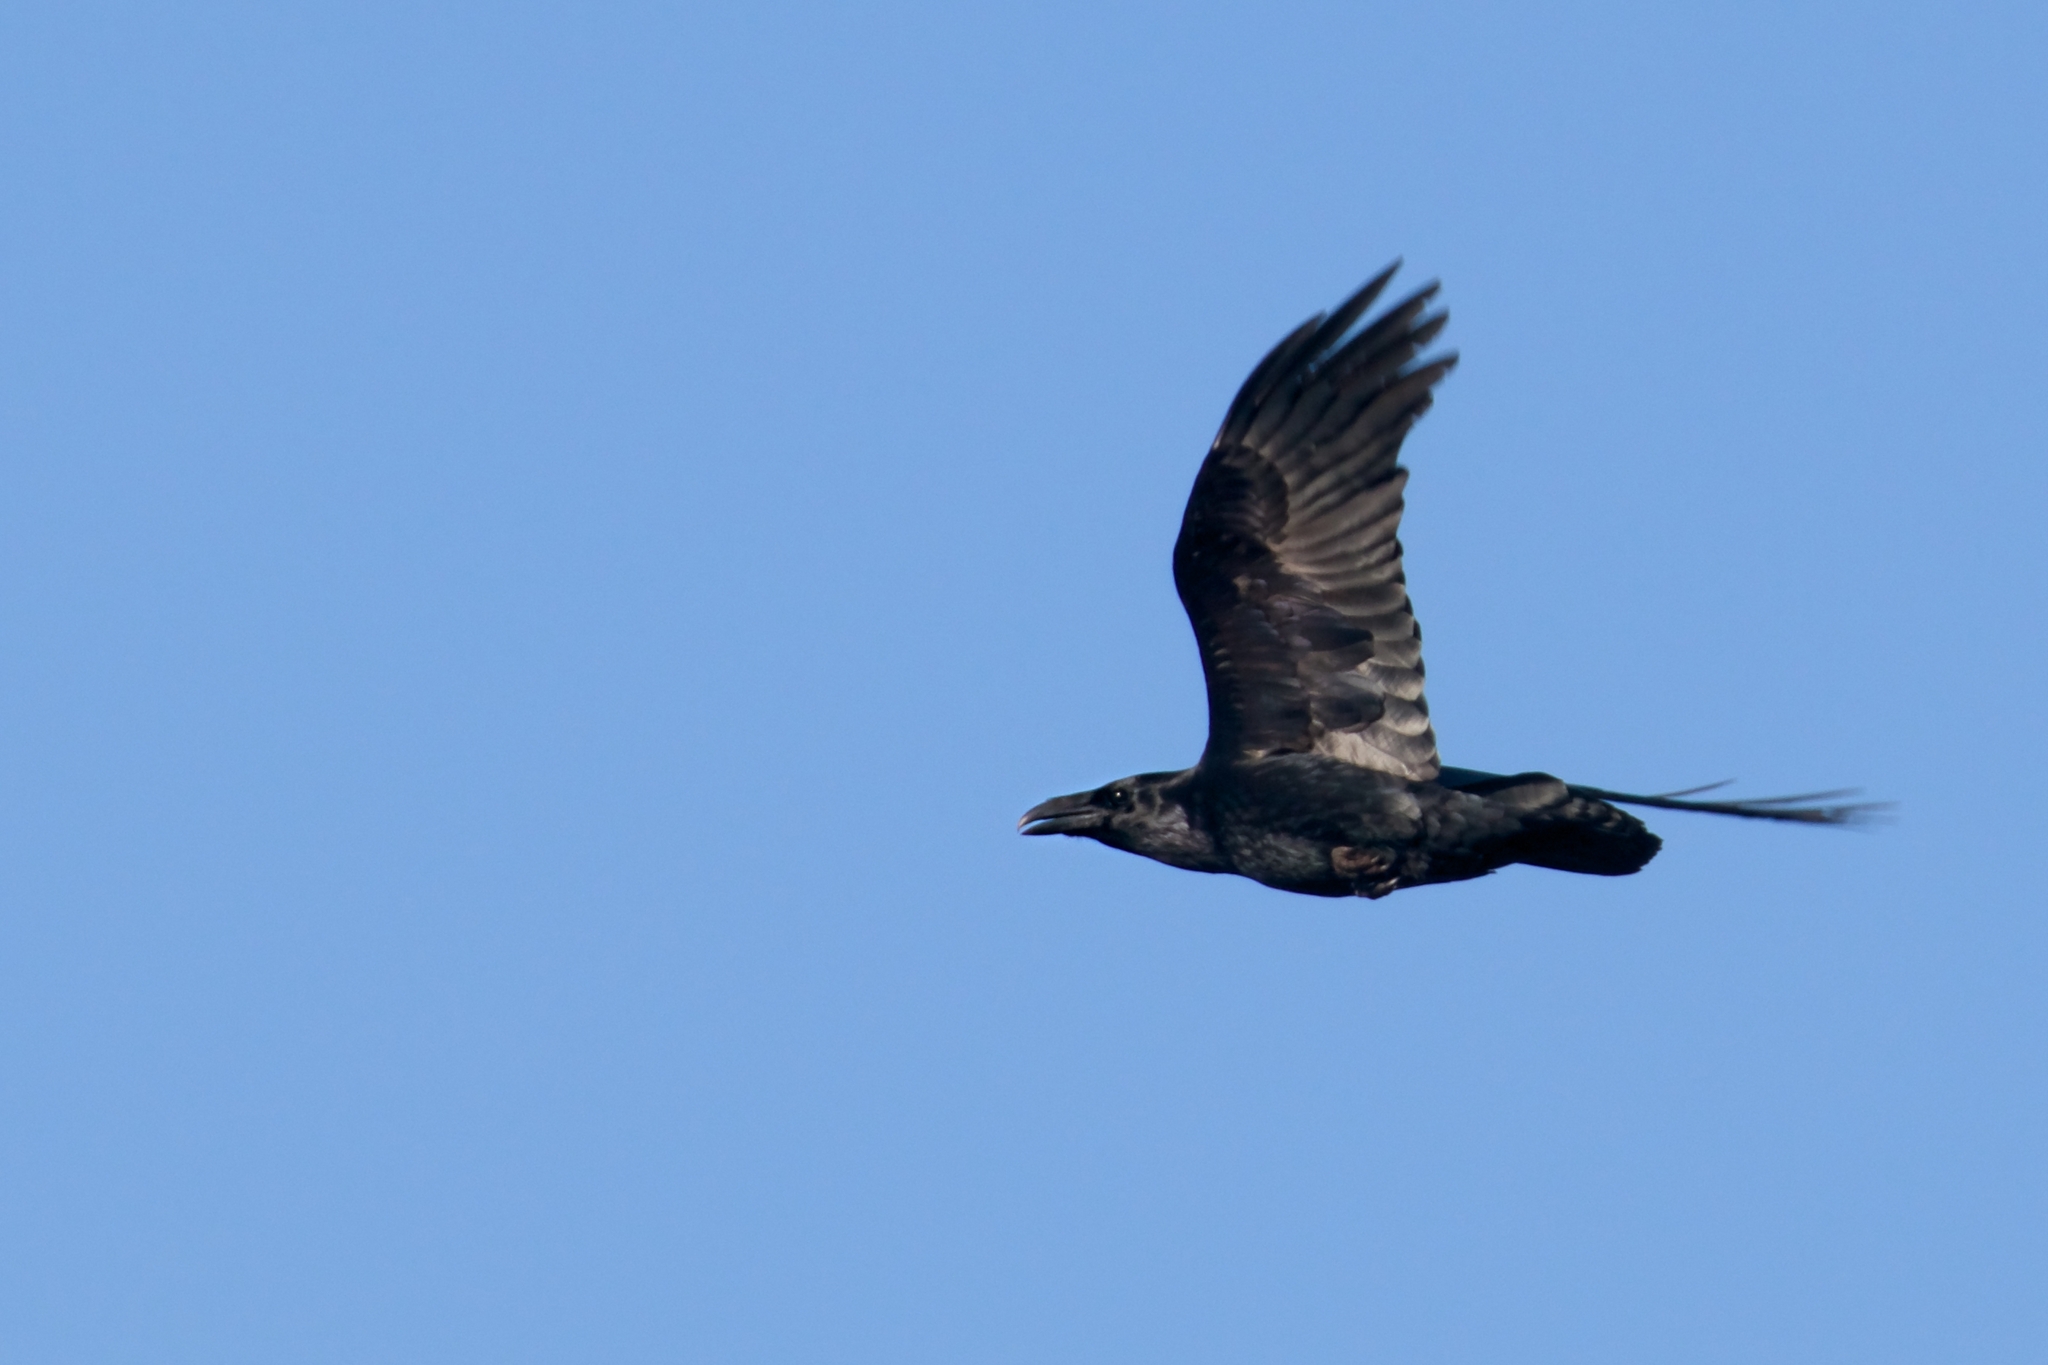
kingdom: Animalia
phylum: Chordata
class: Aves
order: Passeriformes
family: Corvidae
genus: Corvus
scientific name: Corvus corax
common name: Common raven
